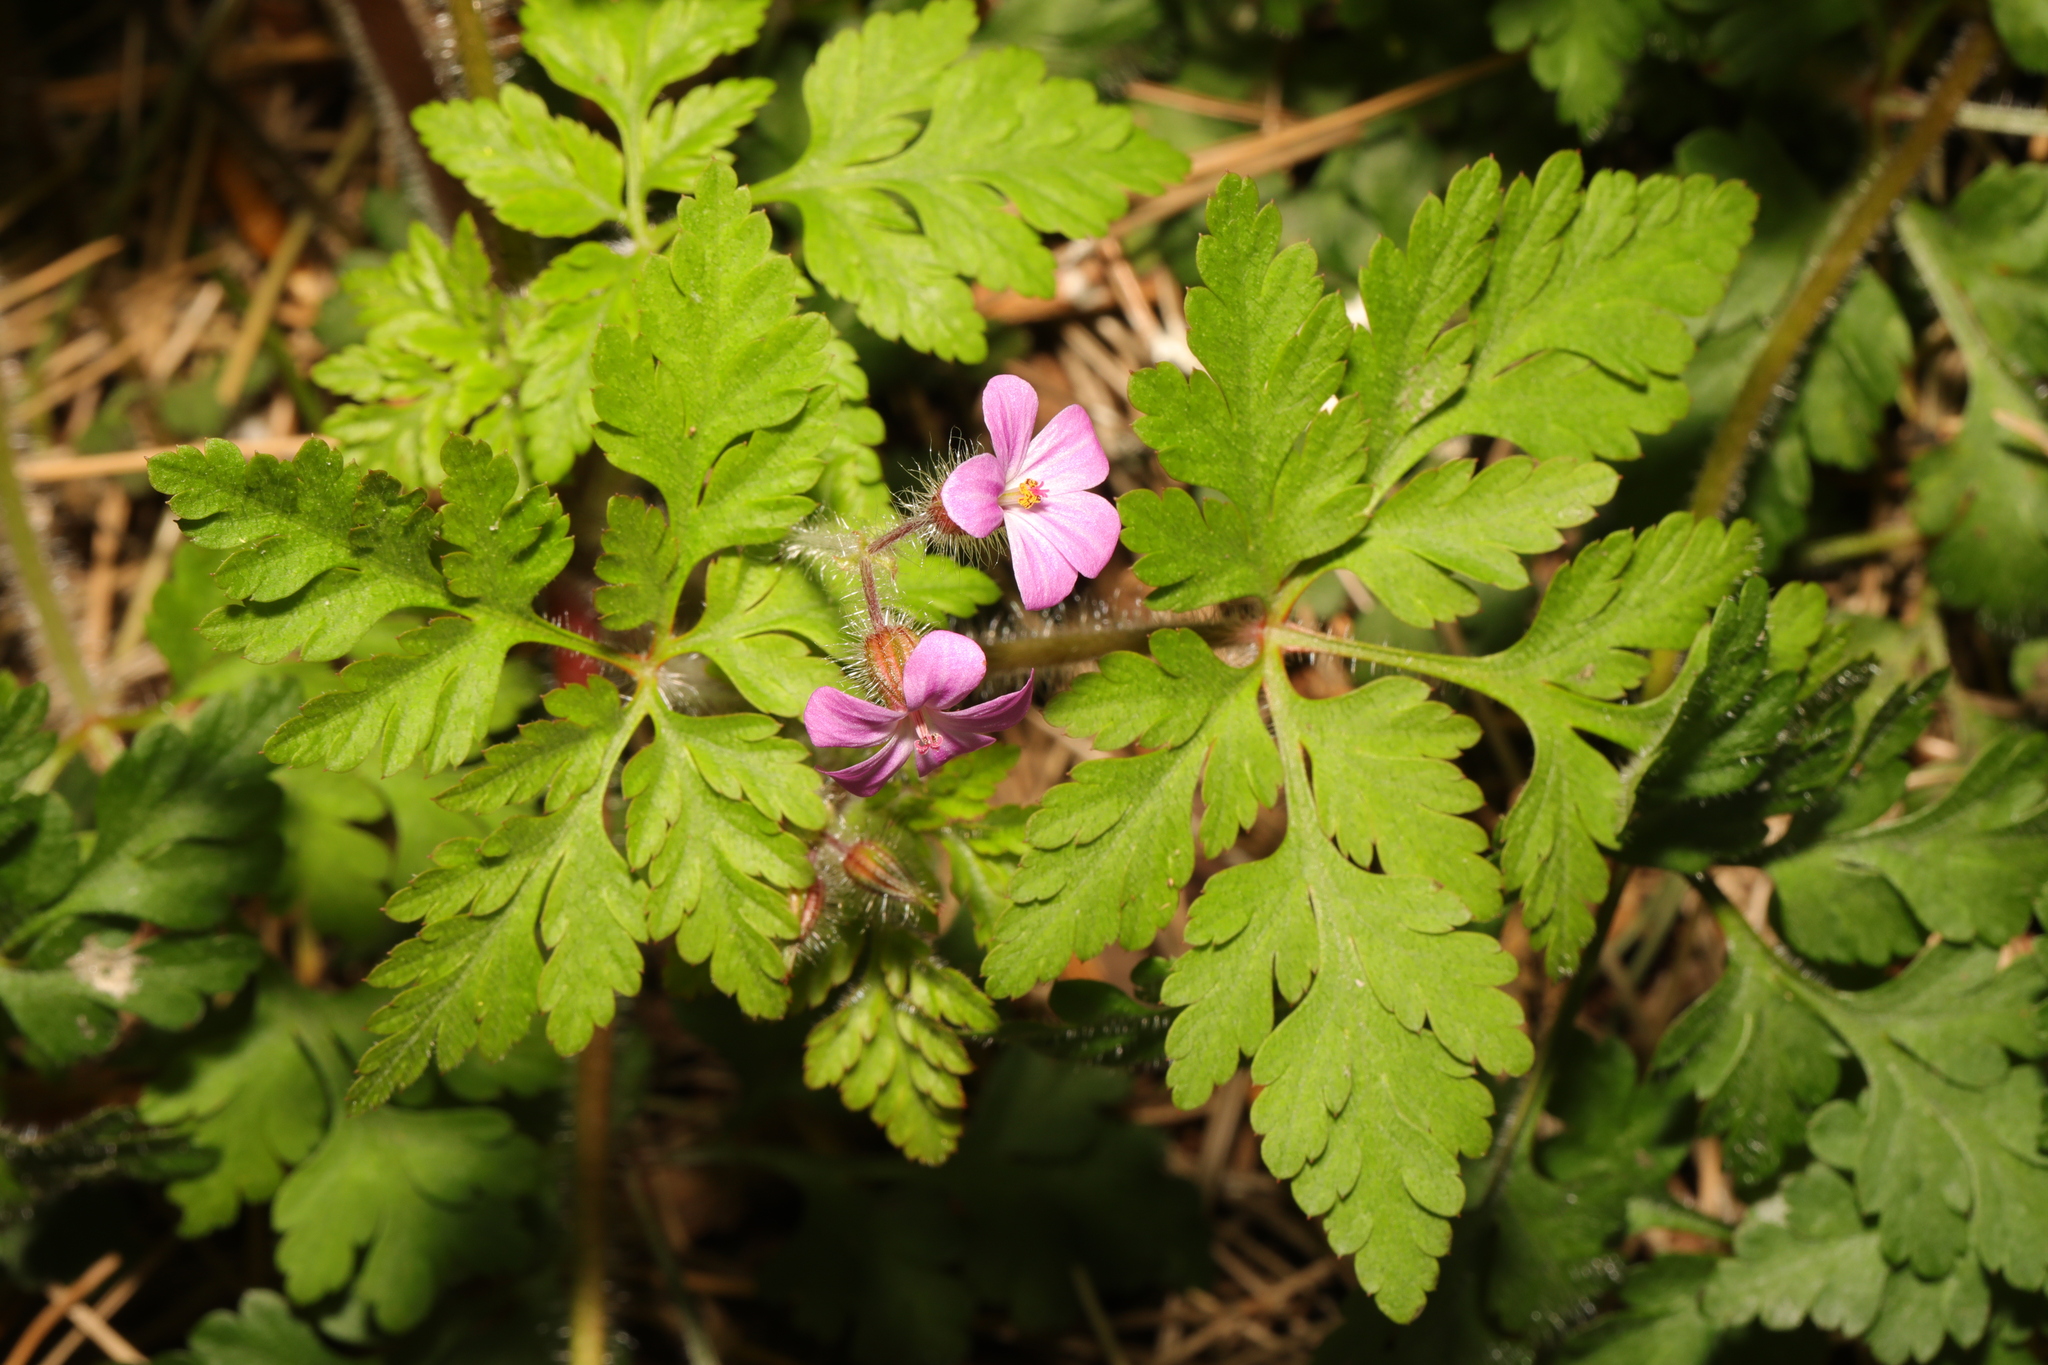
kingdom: Plantae
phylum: Tracheophyta
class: Magnoliopsida
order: Geraniales
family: Geraniaceae
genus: Geranium
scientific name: Geranium robertianum
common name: Herb-robert
